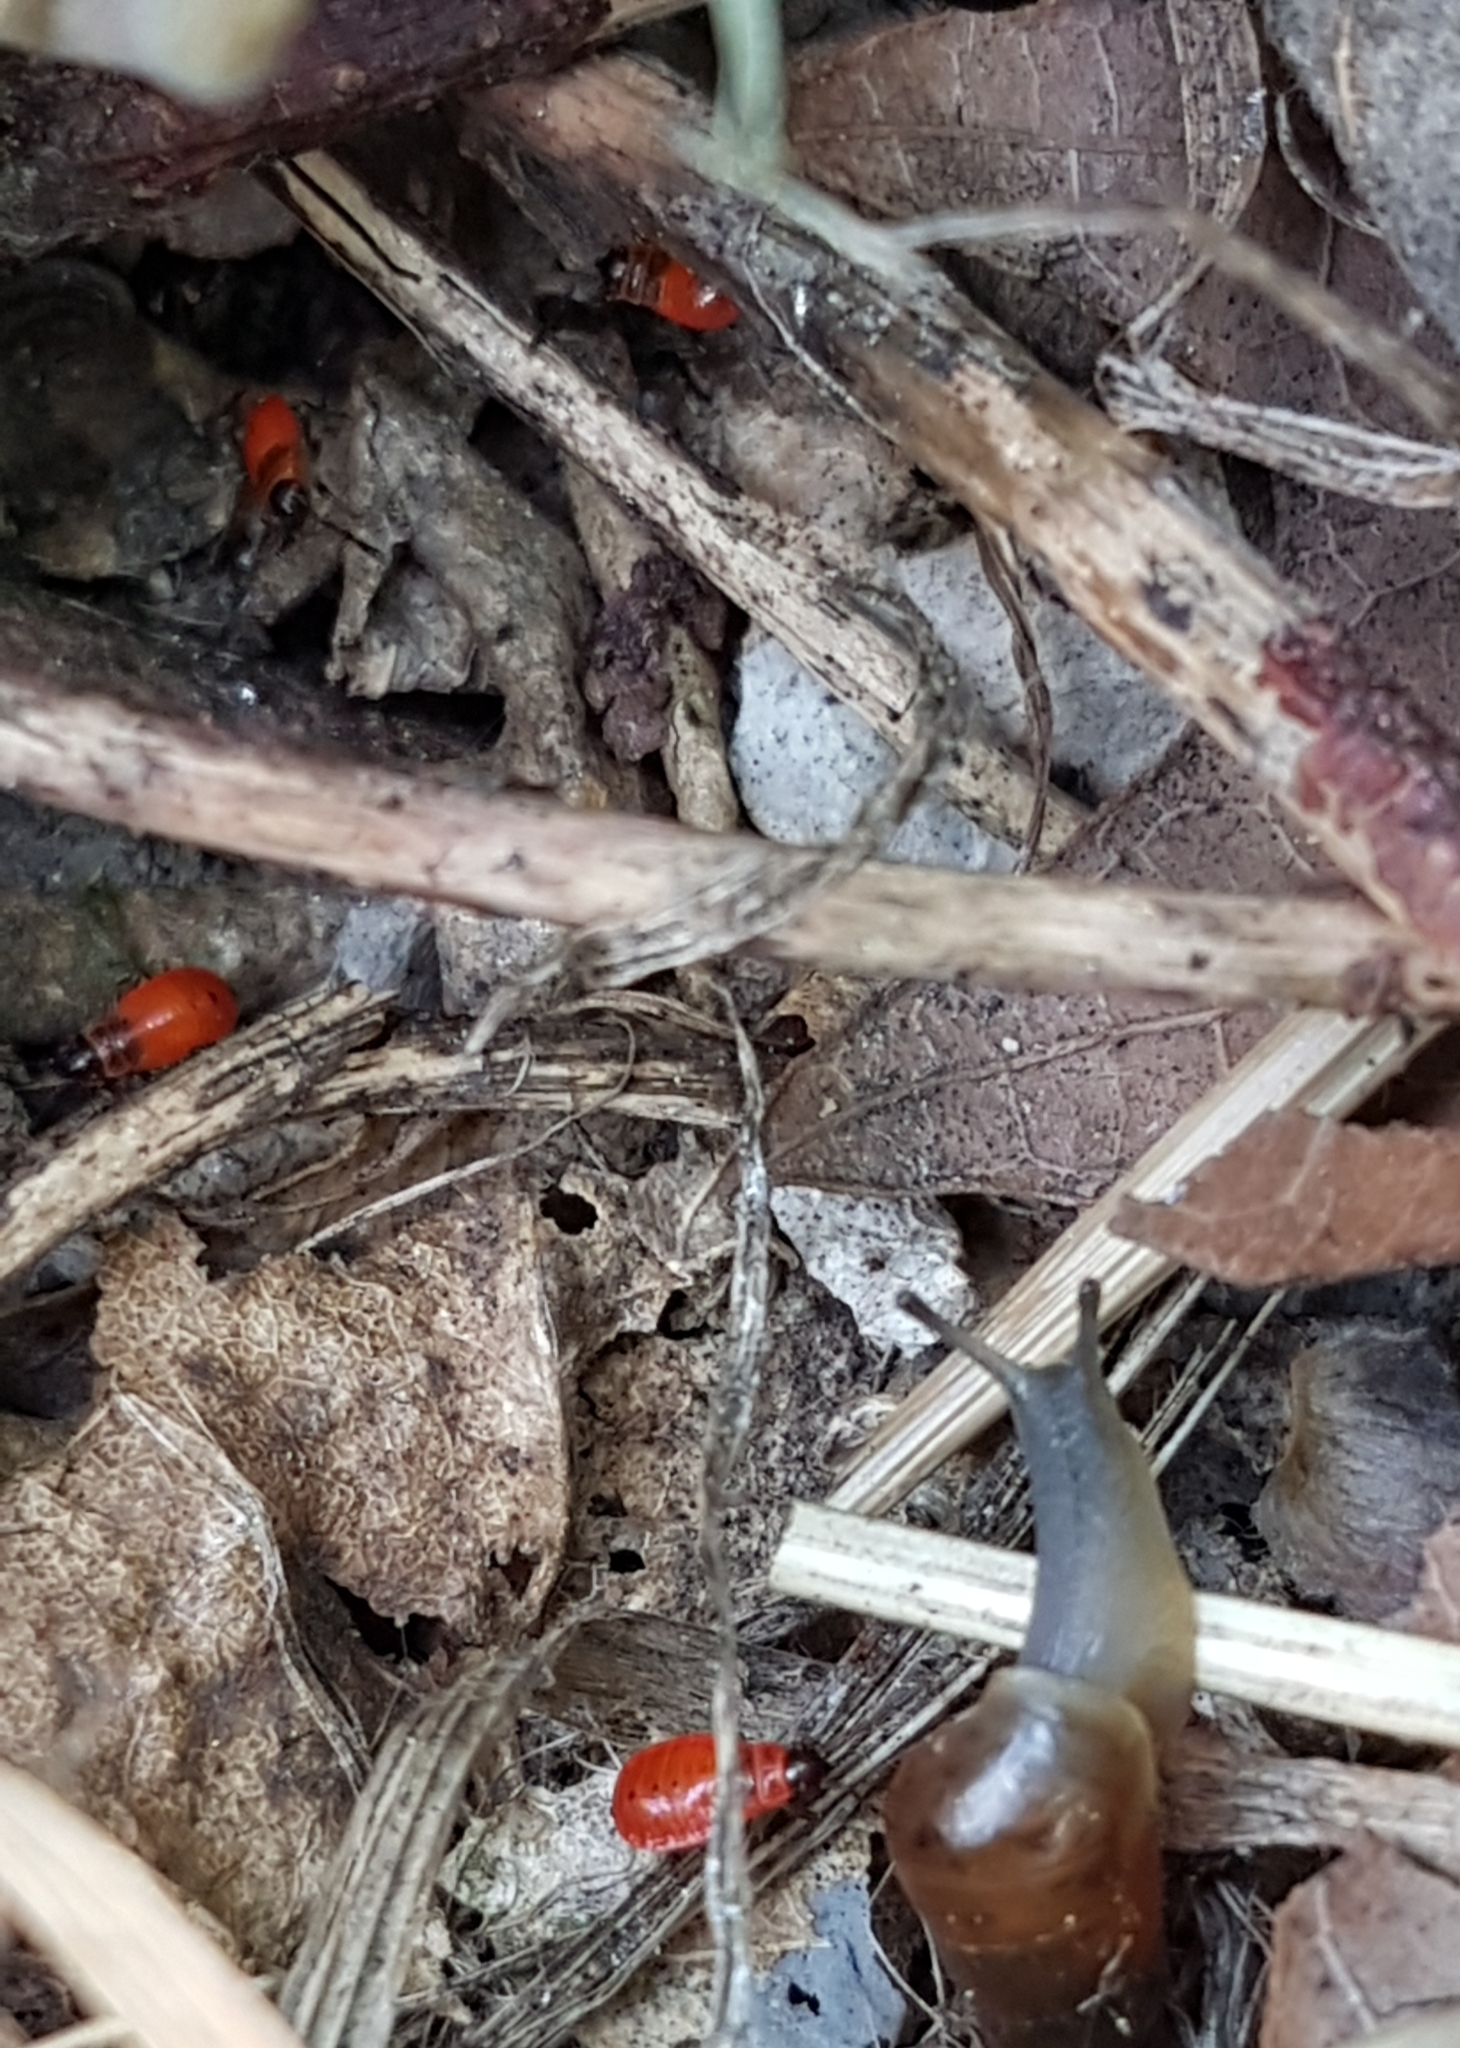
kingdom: Animalia
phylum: Arthropoda
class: Insecta
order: Hemiptera
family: Pyrrhocoridae
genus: Pyrrhocoris
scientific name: Pyrrhocoris apterus
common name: Firebug
